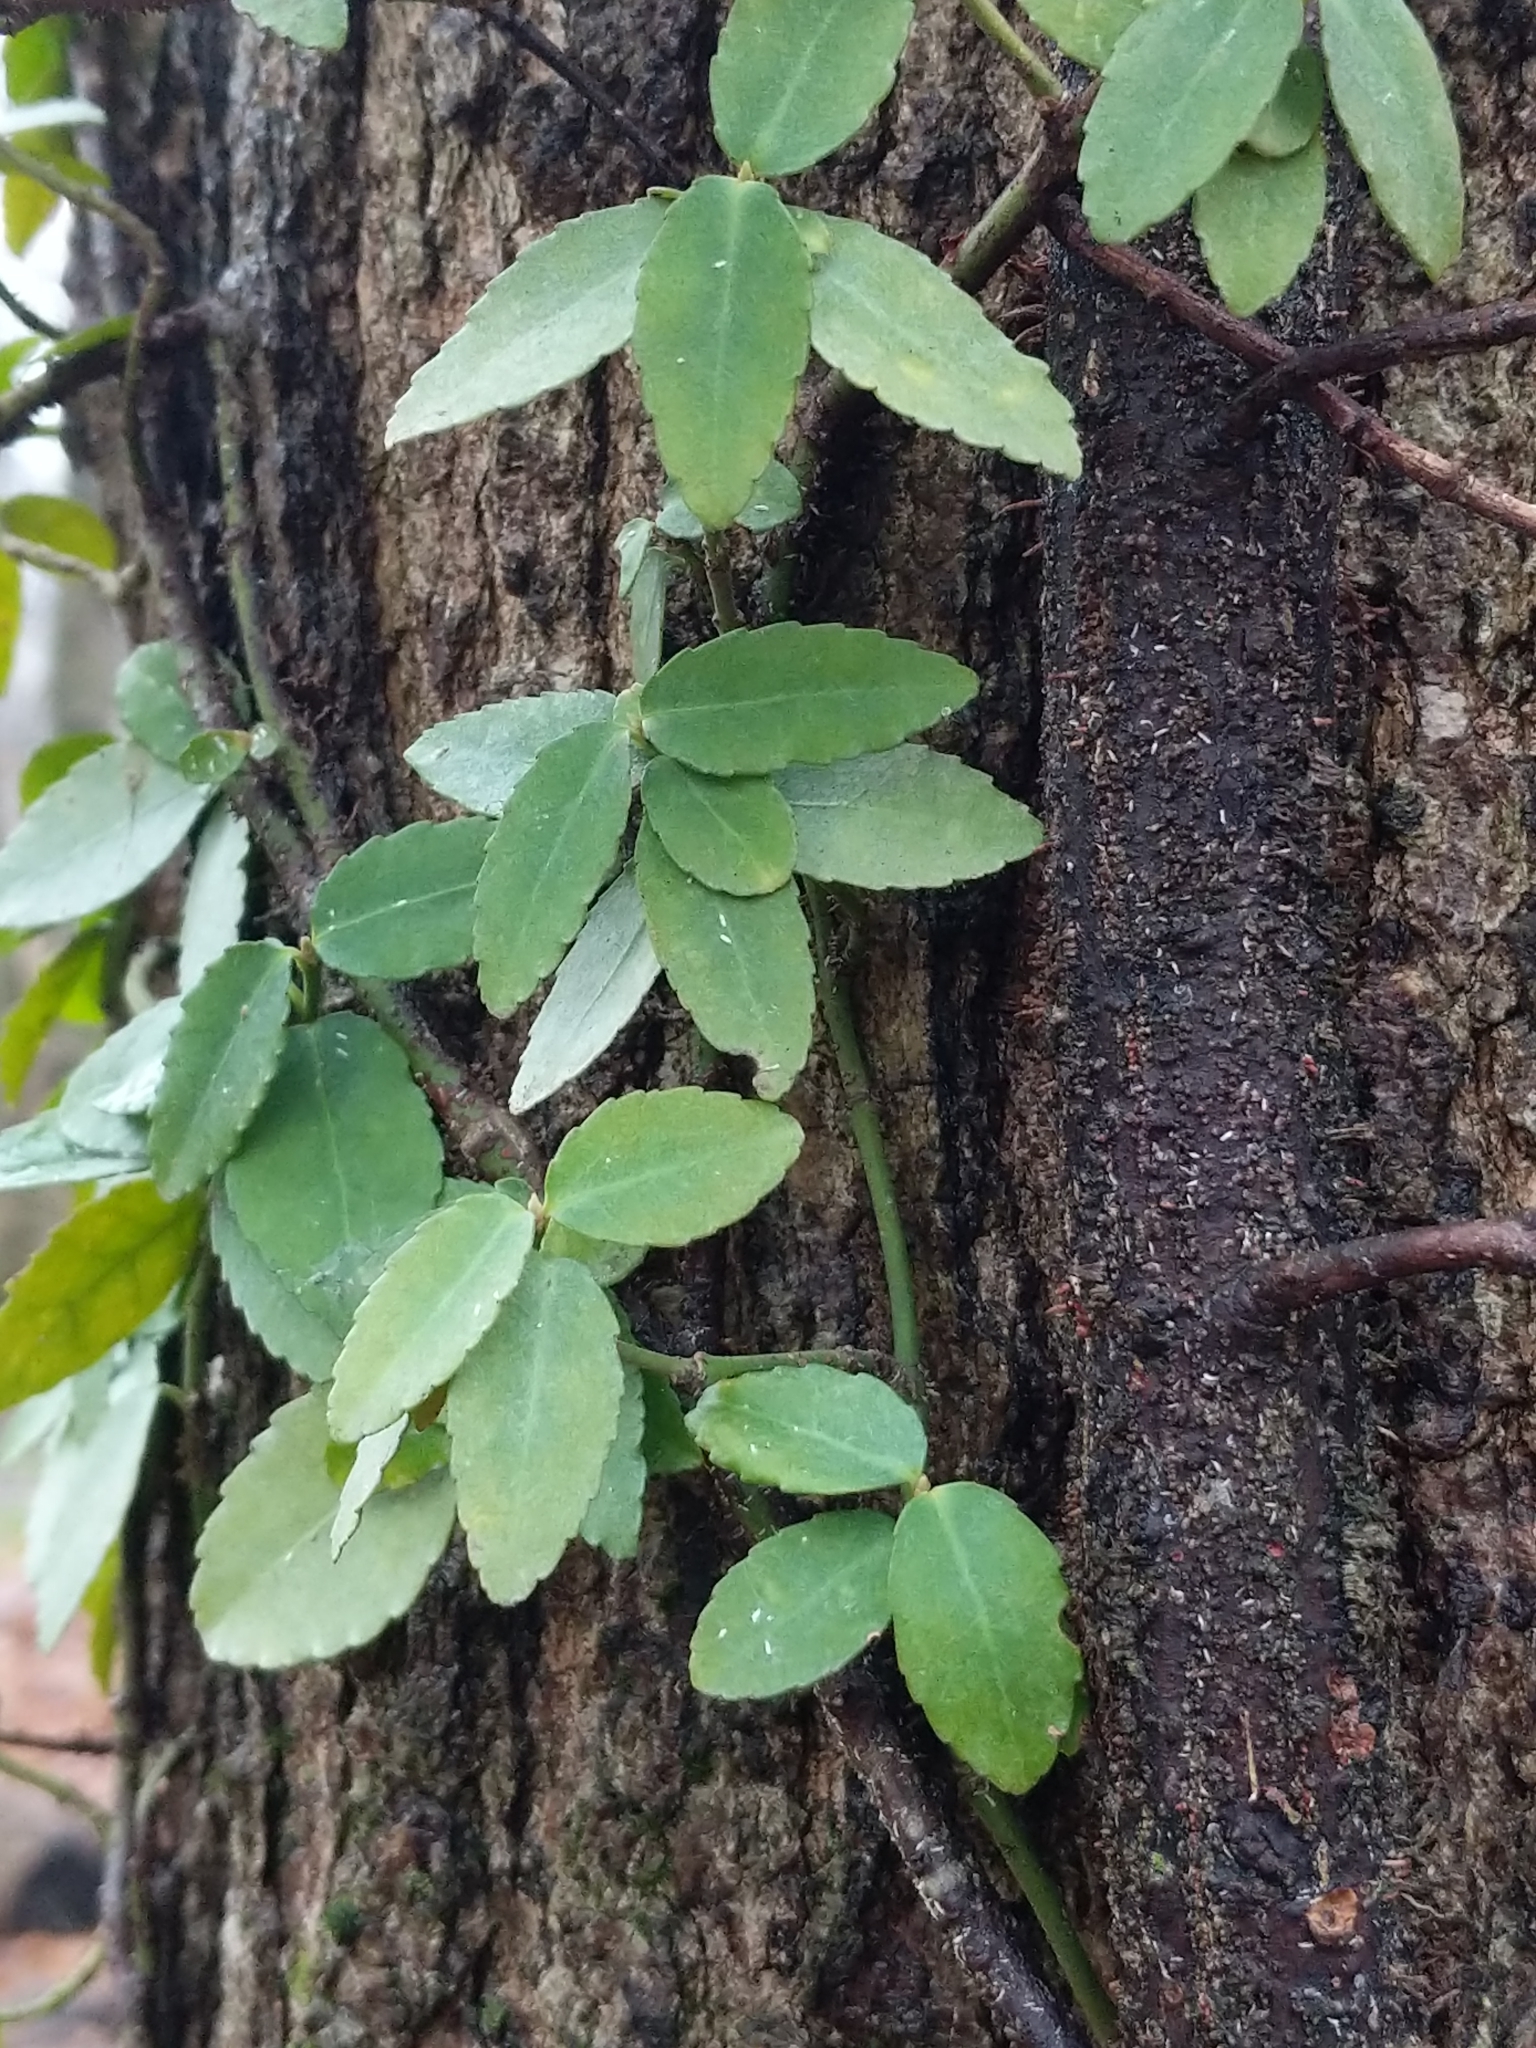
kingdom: Plantae
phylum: Tracheophyta
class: Magnoliopsida
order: Celastrales
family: Celastraceae
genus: Euonymus
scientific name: Euonymus fortunei
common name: Climbing euonymus
